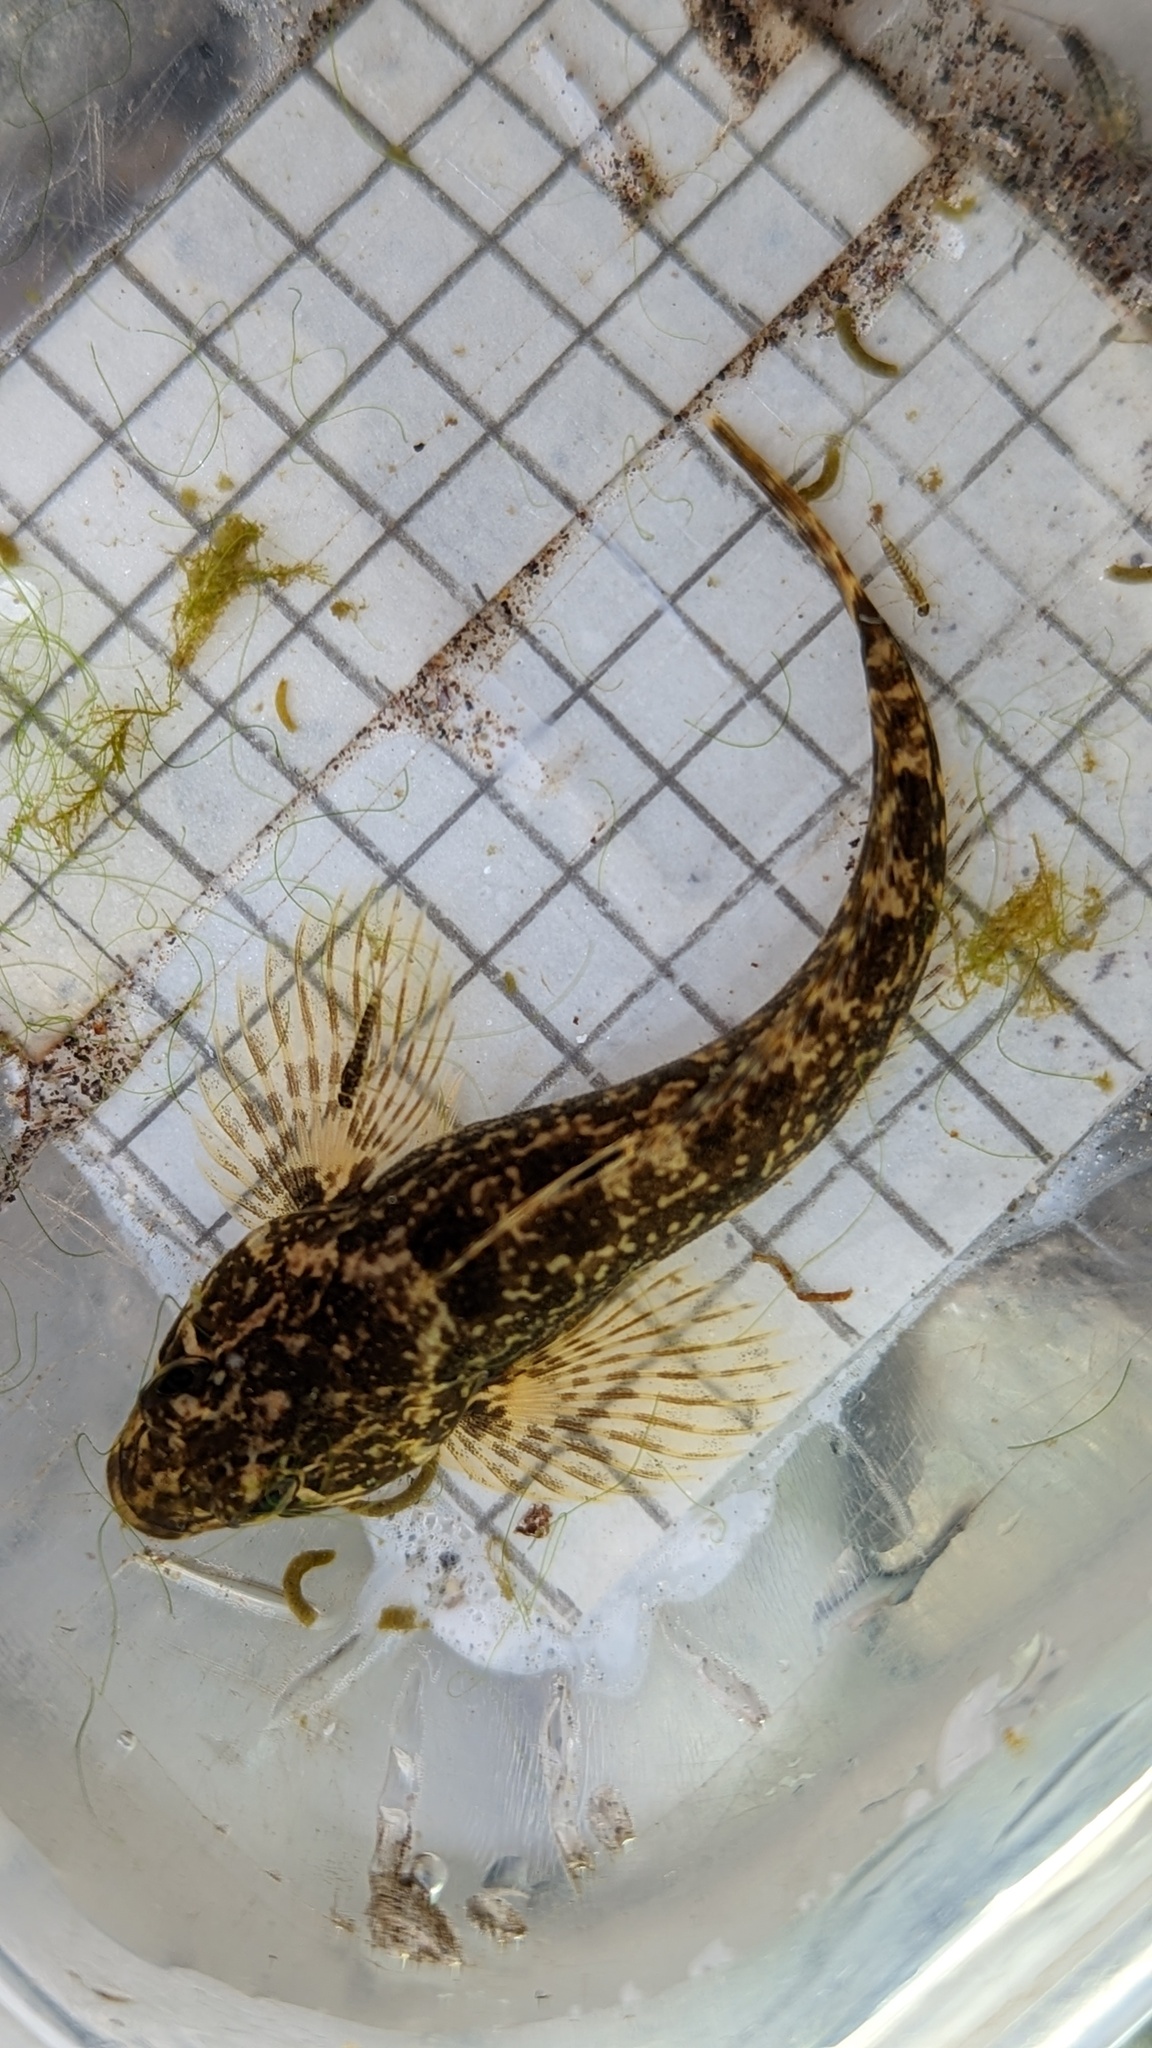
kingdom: Animalia
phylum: Chordata
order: Scorpaeniformes
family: Cottidae
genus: Cottus
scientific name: Cottus asper
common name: Prickly sculpin
